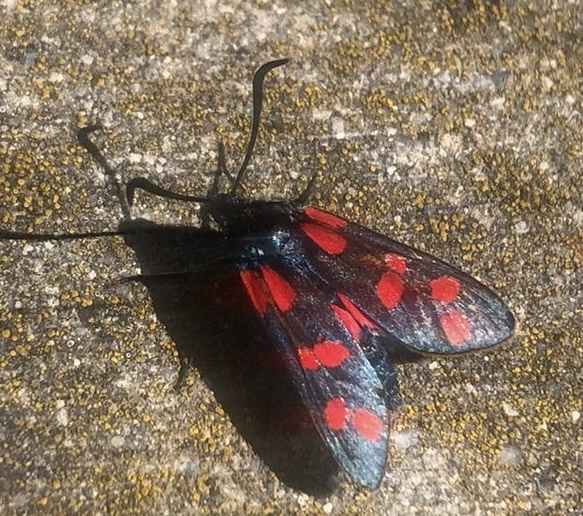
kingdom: Animalia
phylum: Arthropoda
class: Insecta
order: Lepidoptera
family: Zygaenidae
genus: Zygaena
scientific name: Zygaena filipendulae
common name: Six-spot burnet
